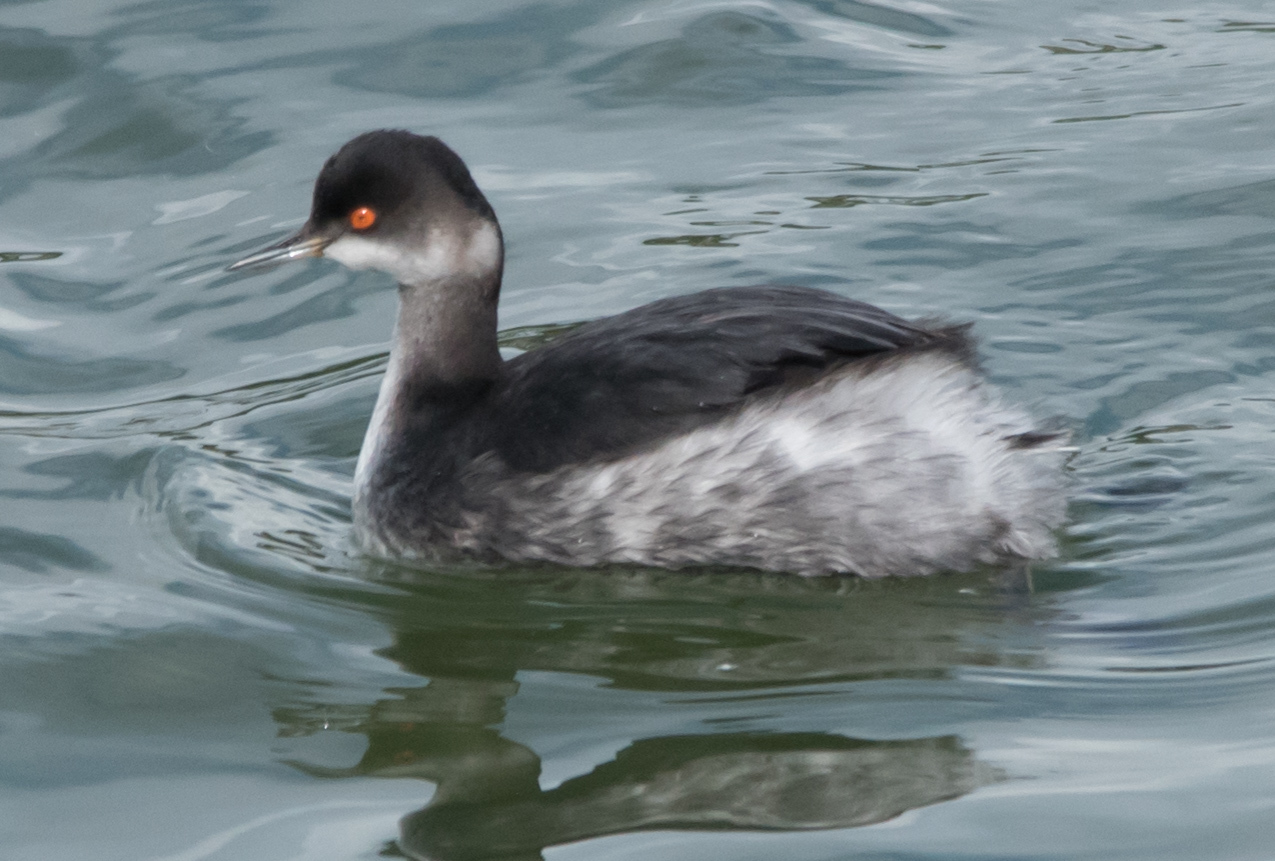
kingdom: Animalia
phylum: Chordata
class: Aves
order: Podicipediformes
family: Podicipedidae
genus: Podiceps
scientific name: Podiceps nigricollis
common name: Black-necked grebe
